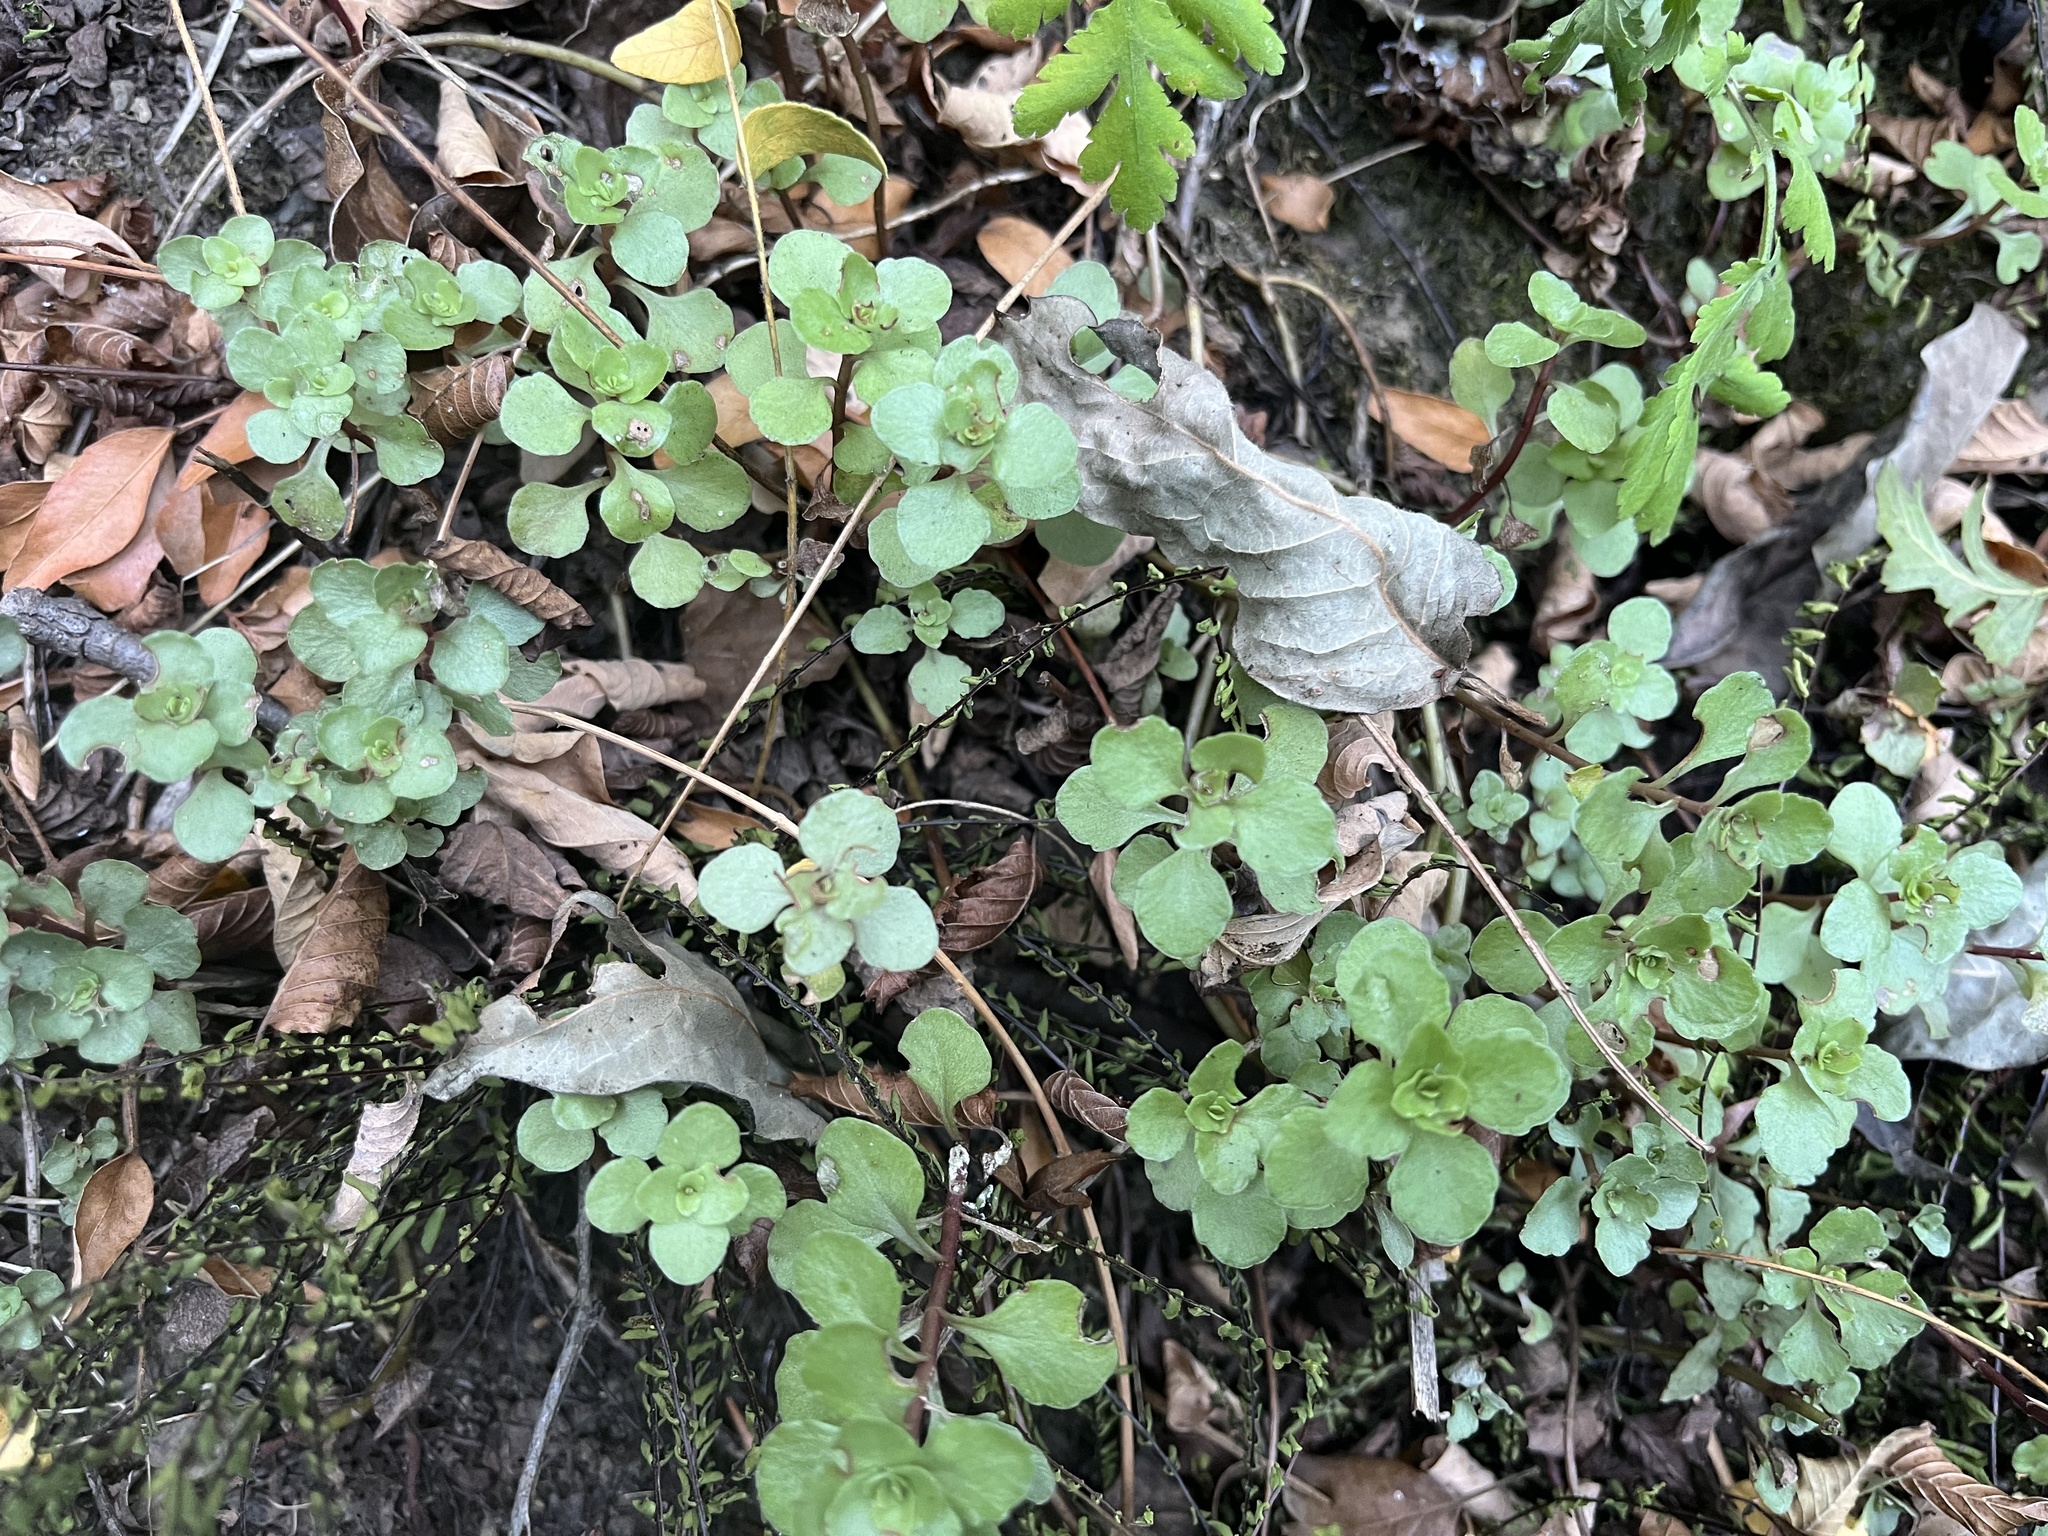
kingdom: Plantae
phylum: Tracheophyta
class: Magnoliopsida
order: Saxifragales
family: Crassulaceae
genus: Phedimus
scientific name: Phedimus stolonifer
